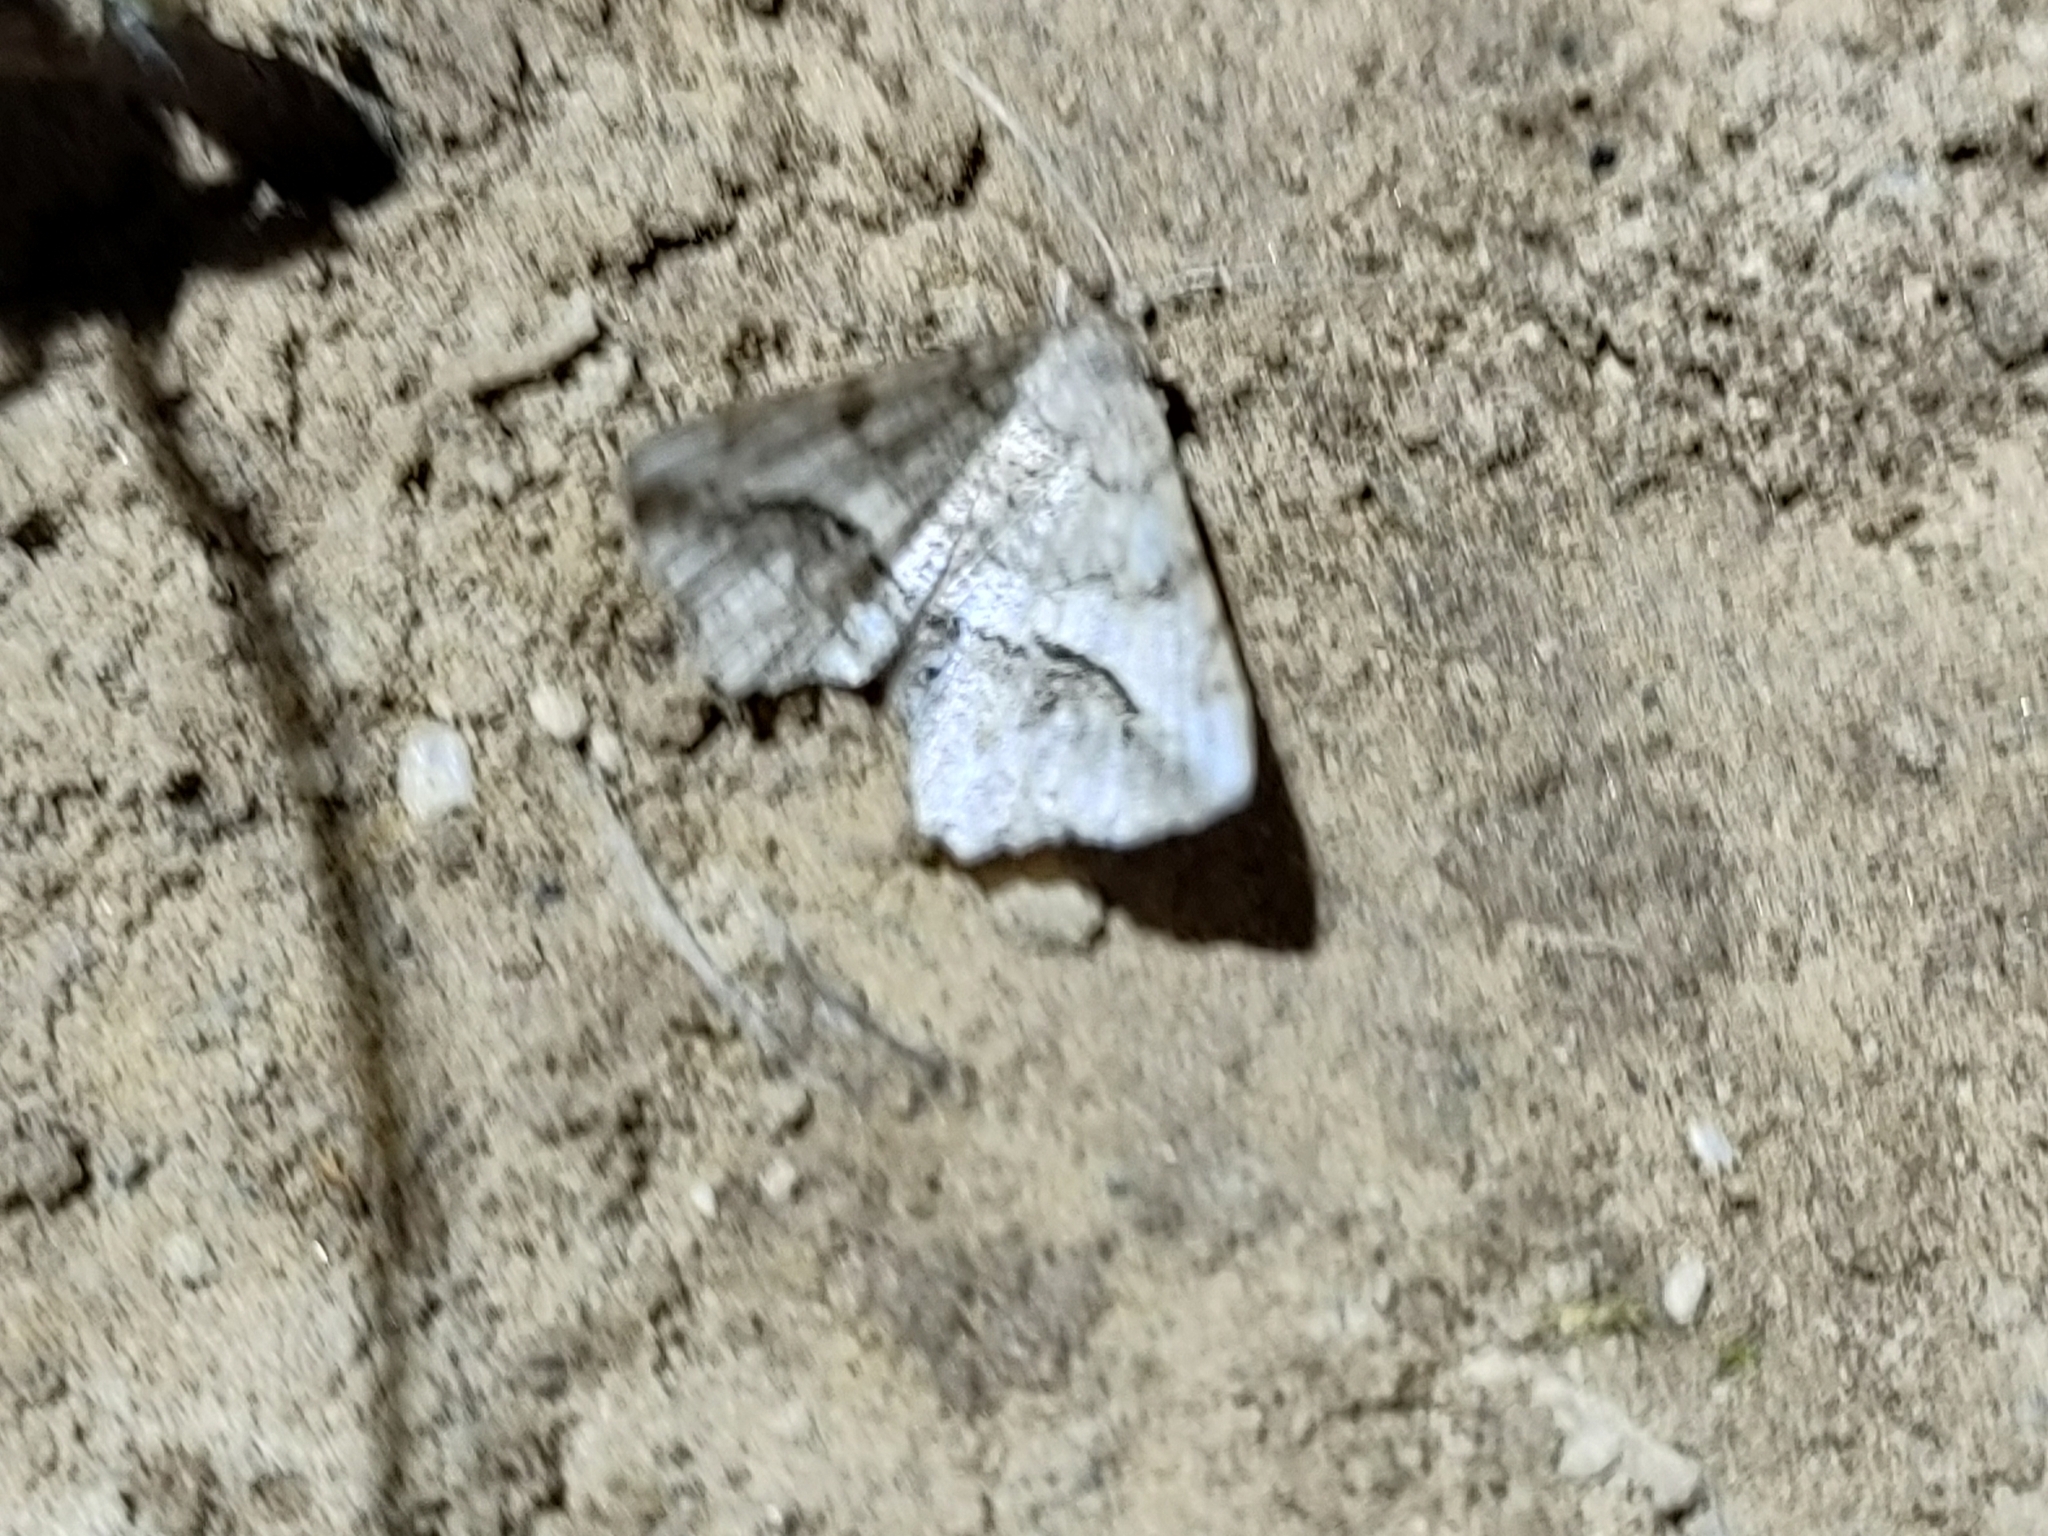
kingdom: Animalia
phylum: Arthropoda
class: Insecta
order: Lepidoptera
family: Geometridae
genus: Chiasmia
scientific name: Chiasmia aestimaria
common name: Tamarisk peacock
